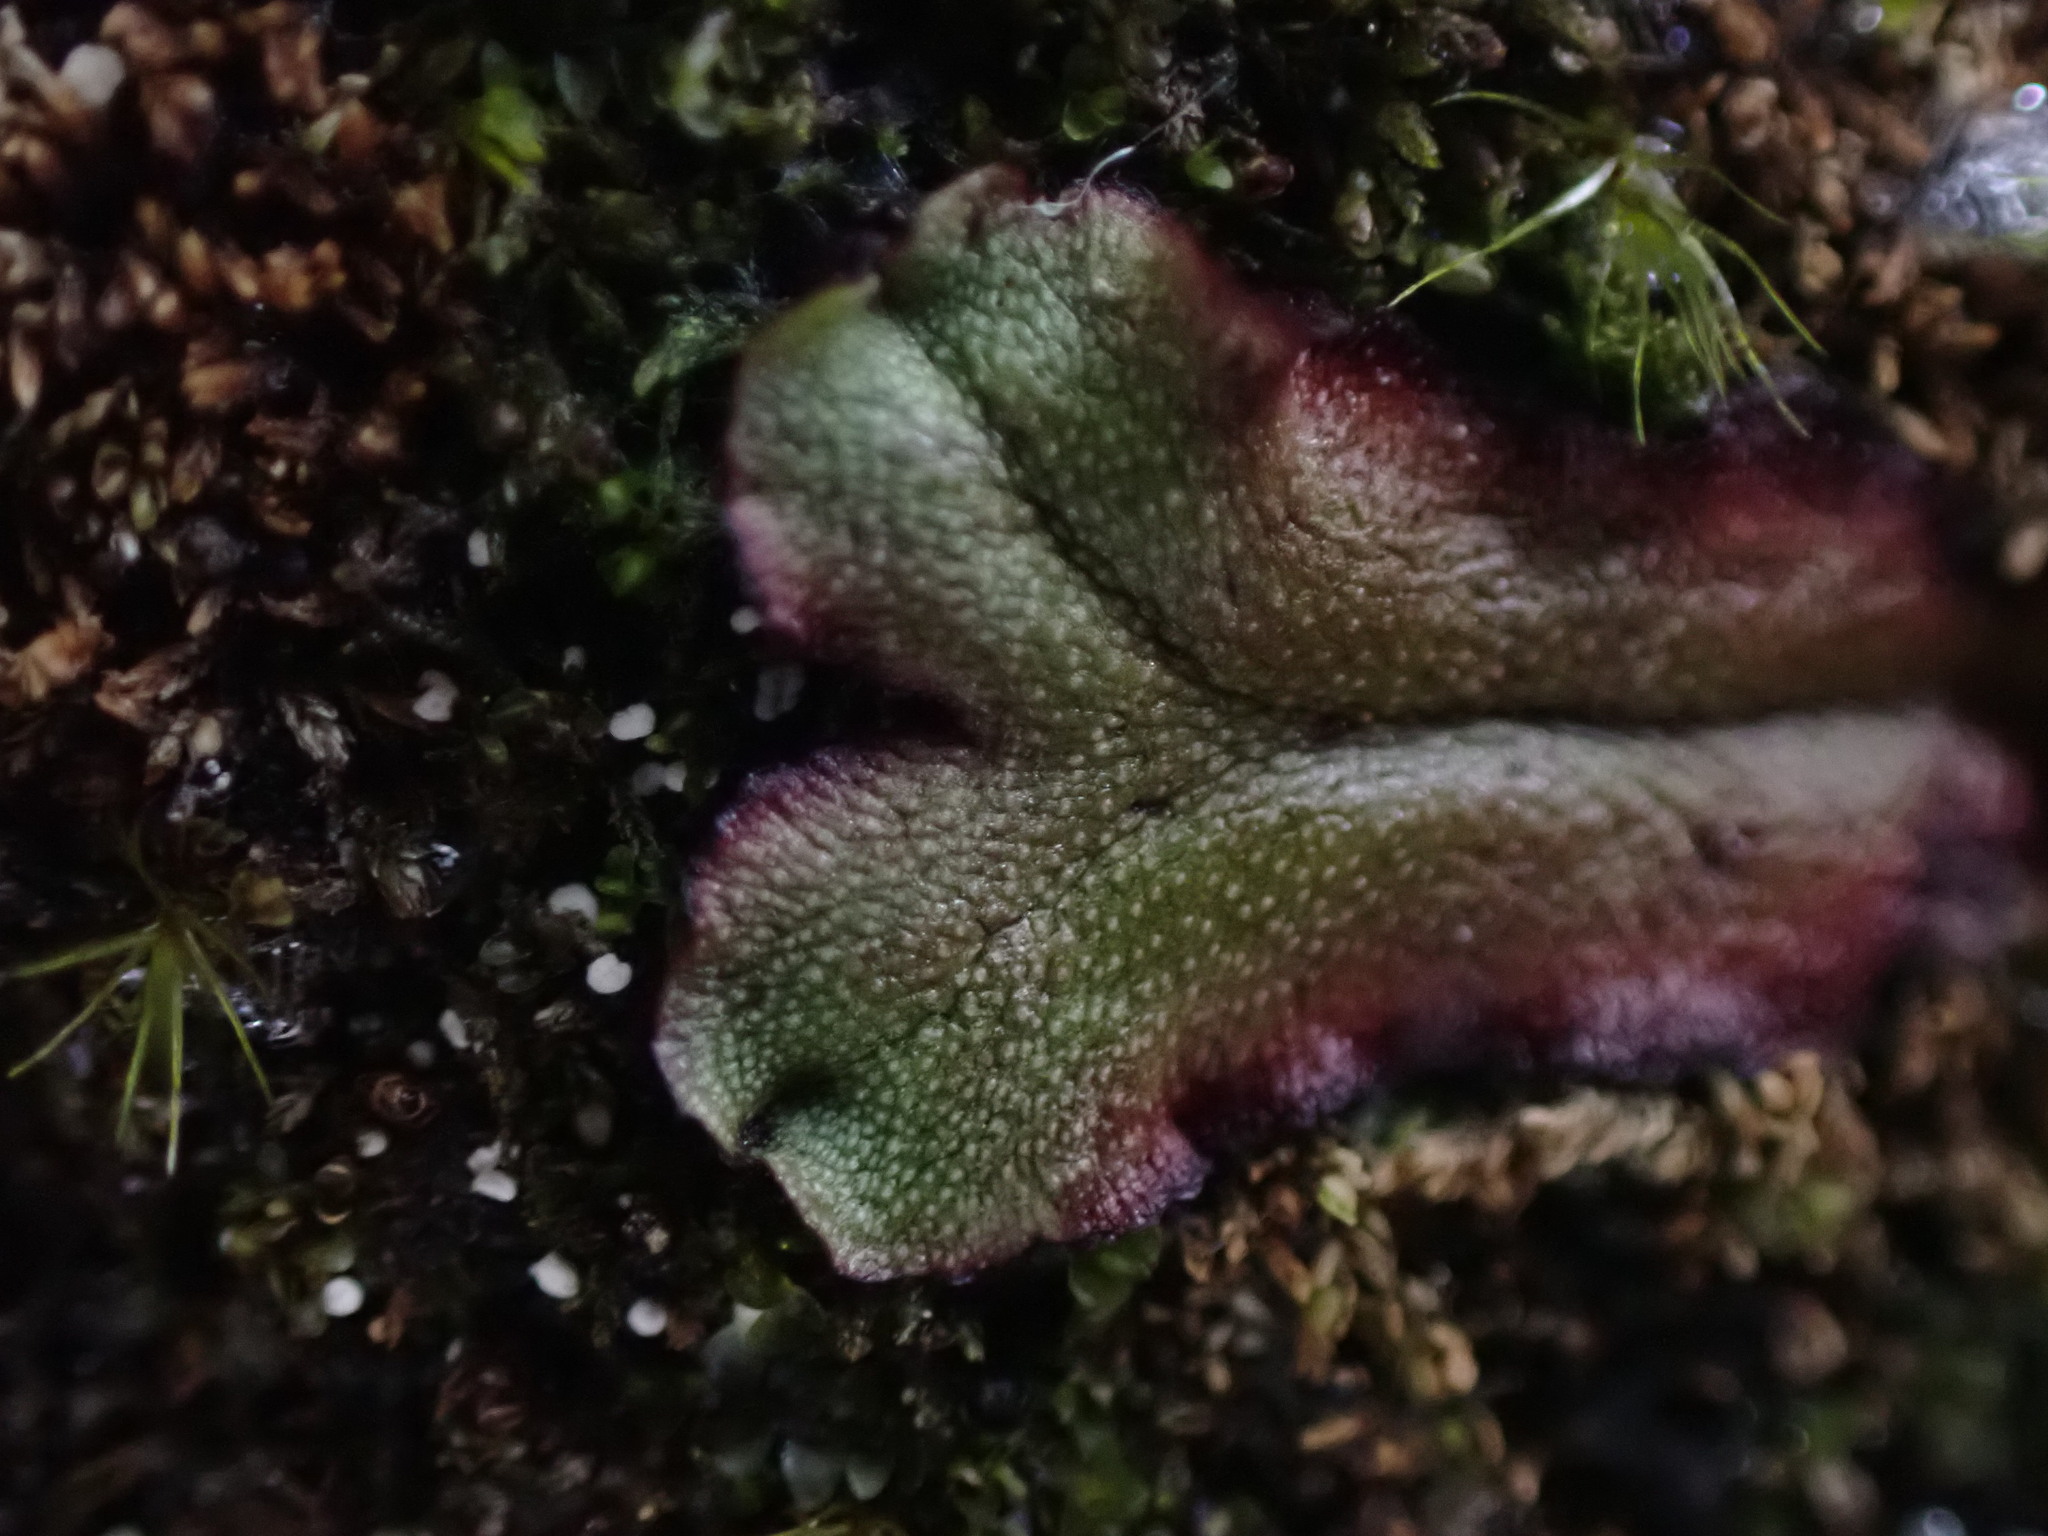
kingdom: Plantae
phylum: Marchantiophyta
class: Marchantiopsida
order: Marchantiales
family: Marchantiaceae
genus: Marchantia
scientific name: Marchantia quadrata
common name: Narrow mushroom-headed liverwort
